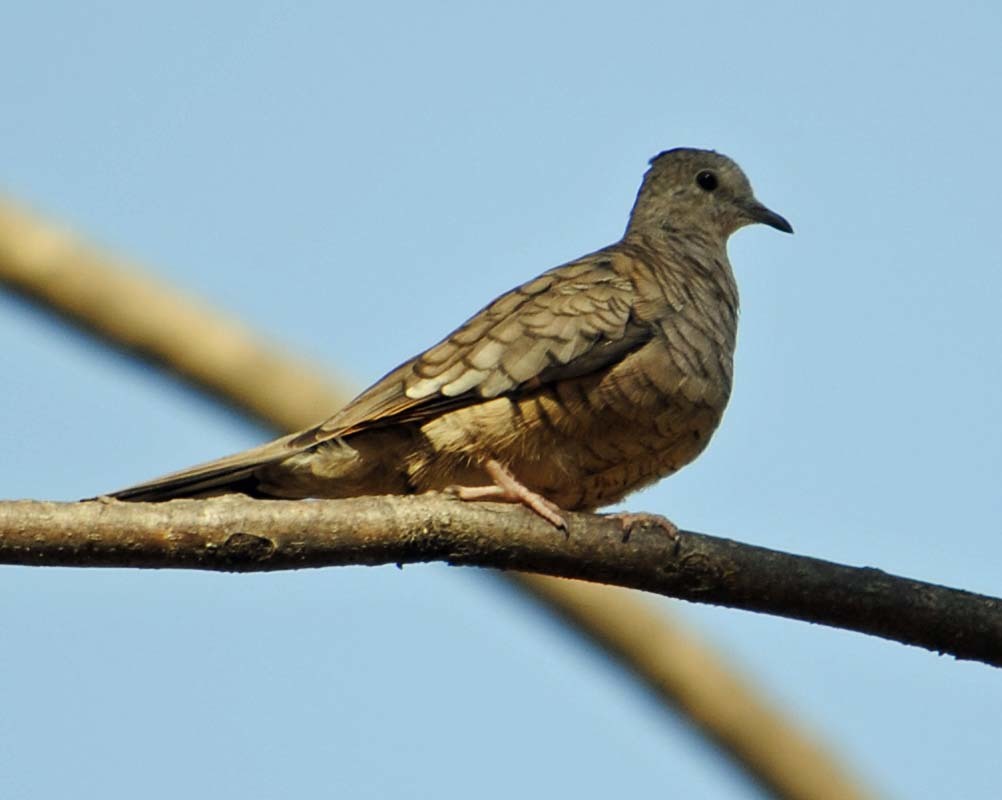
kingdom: Animalia
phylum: Chordata
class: Aves
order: Columbiformes
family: Columbidae
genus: Columbina
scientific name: Columbina inca
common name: Inca dove
